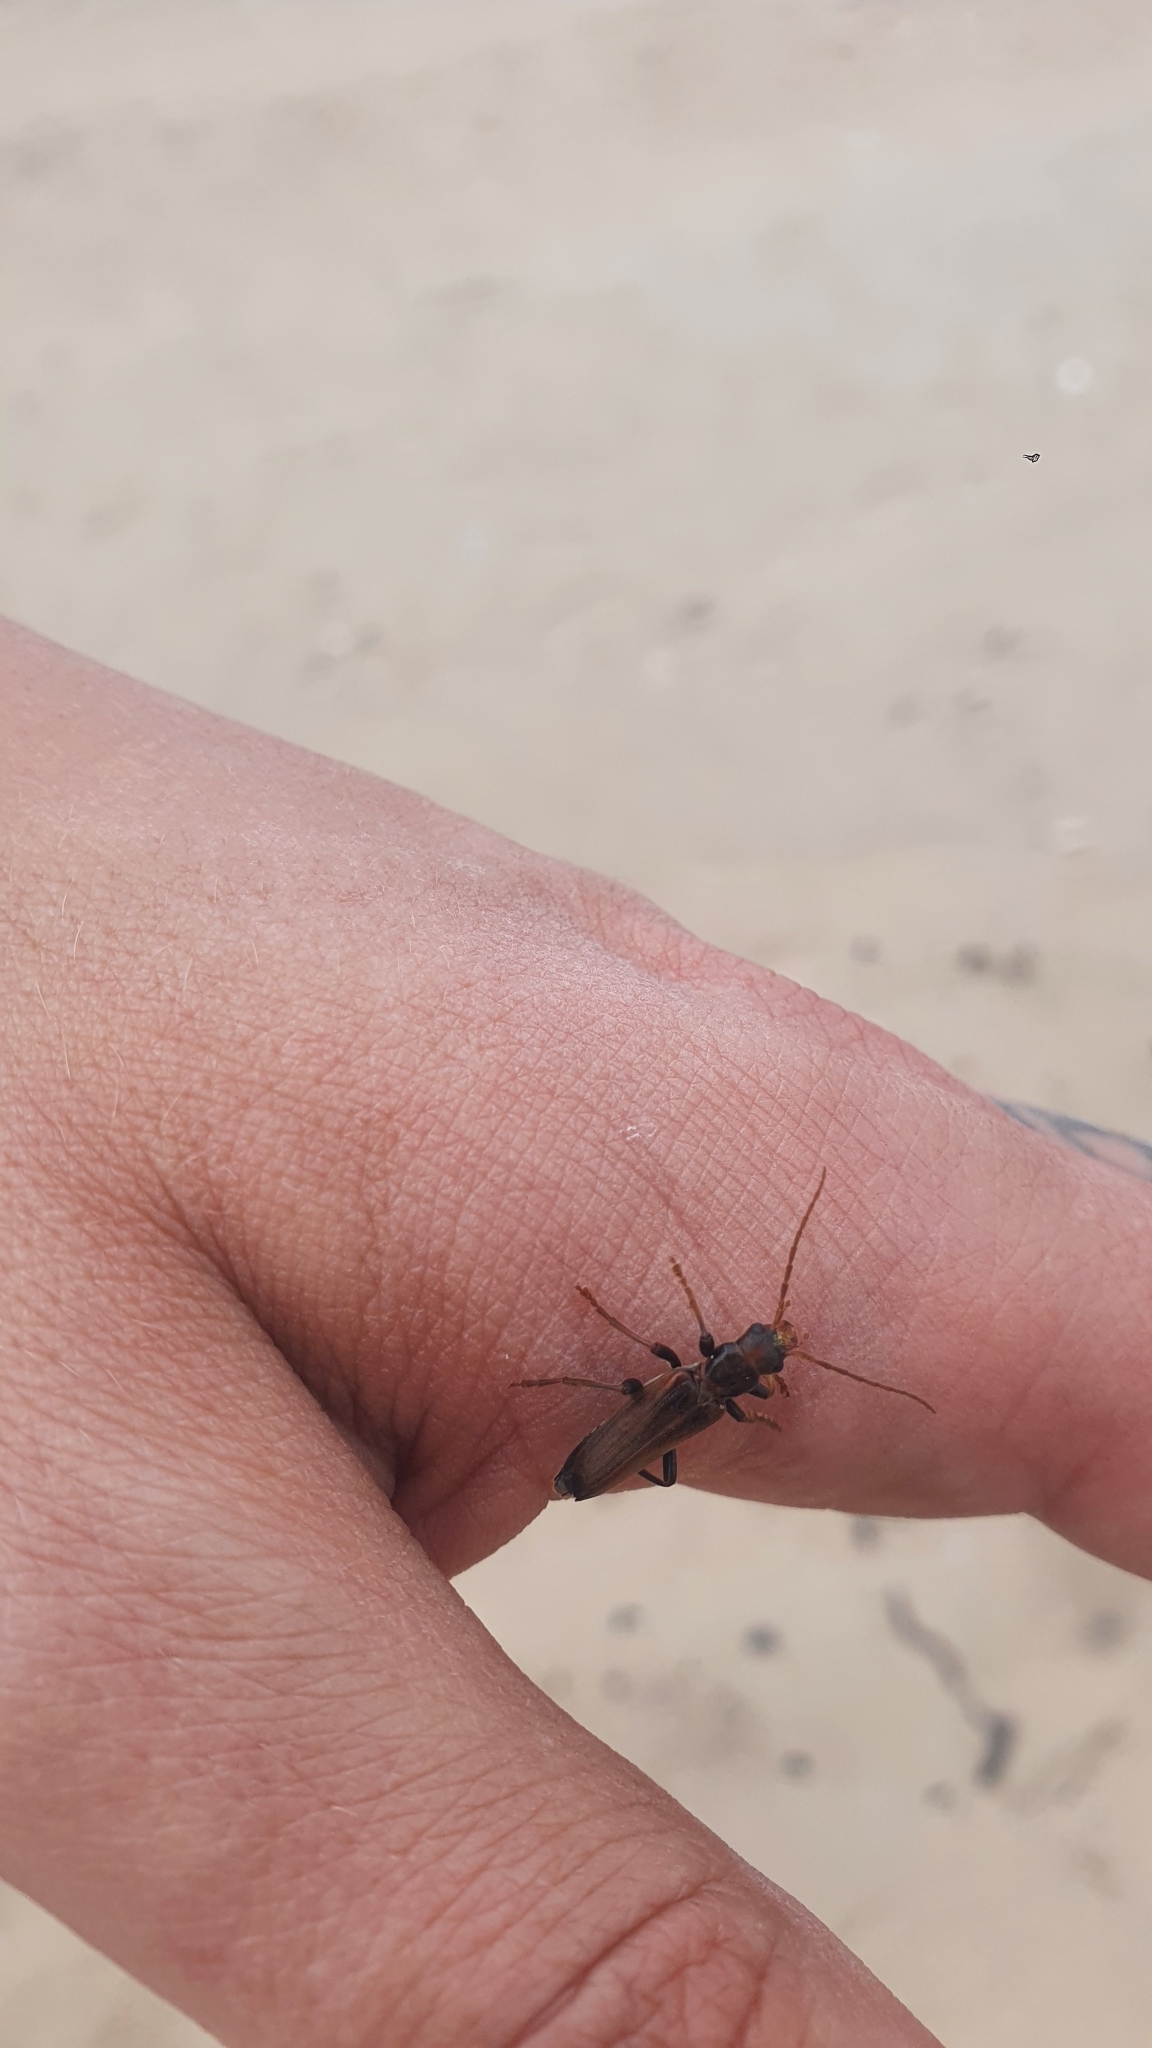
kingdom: Animalia
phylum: Arthropoda
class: Insecta
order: Coleoptera
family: Oedemeridae
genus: Nacerdes
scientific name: Nacerdes melanura
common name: Wharf borer
